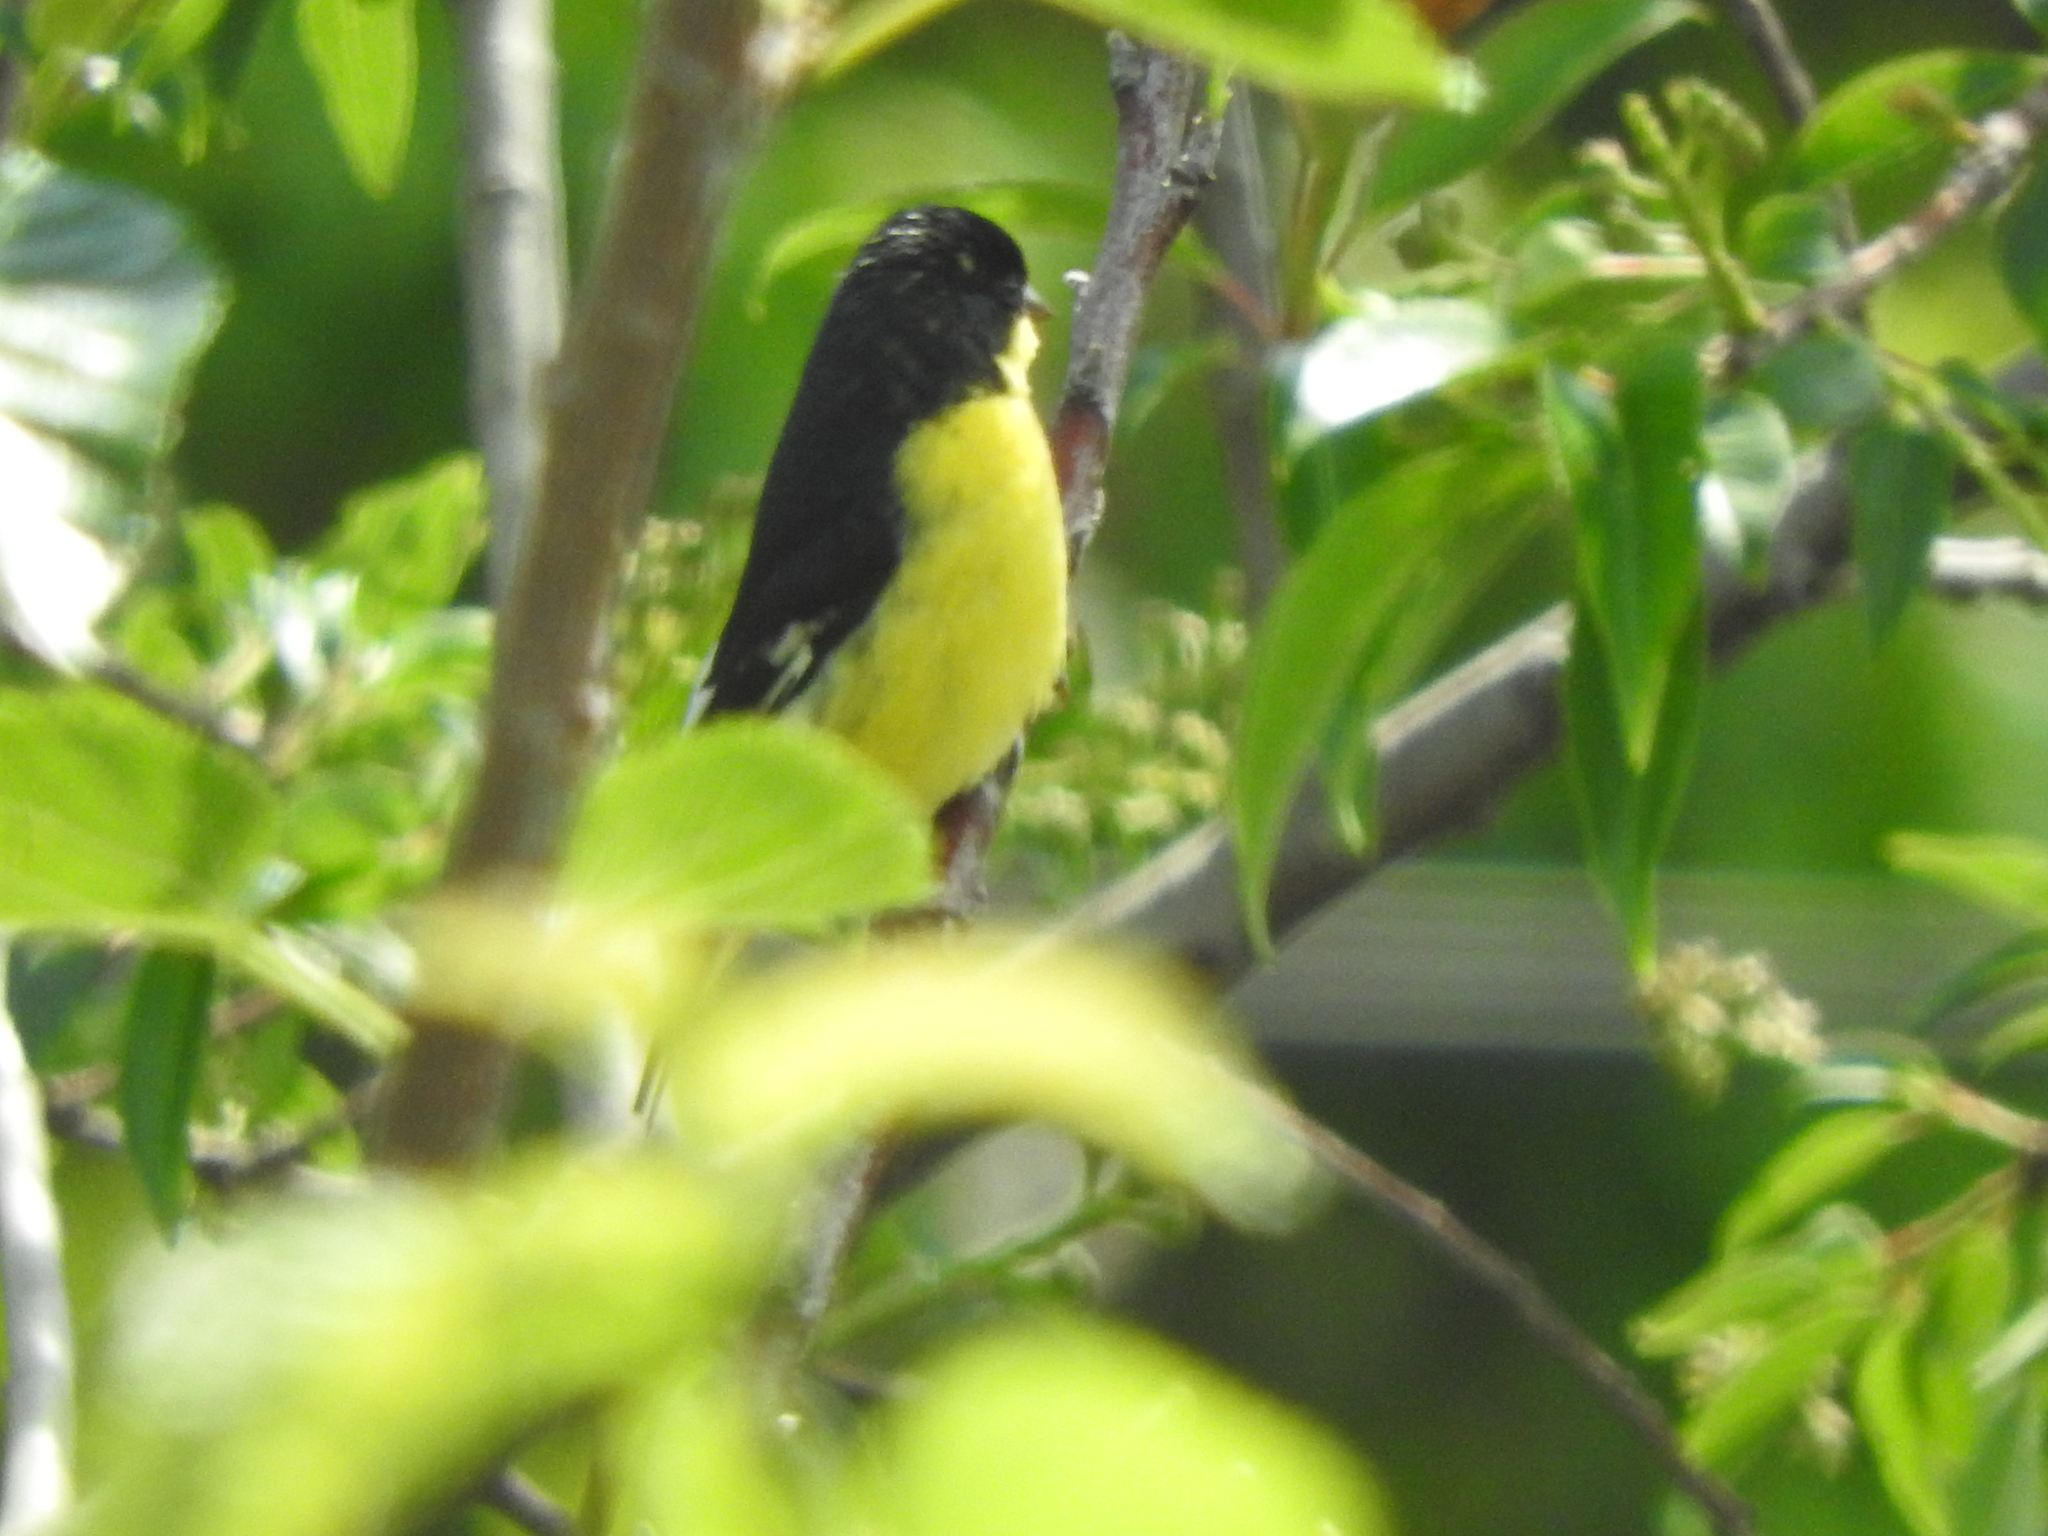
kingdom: Animalia
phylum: Chordata
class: Aves
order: Passeriformes
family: Fringillidae
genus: Spinus
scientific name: Spinus psaltria
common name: Lesser goldfinch
